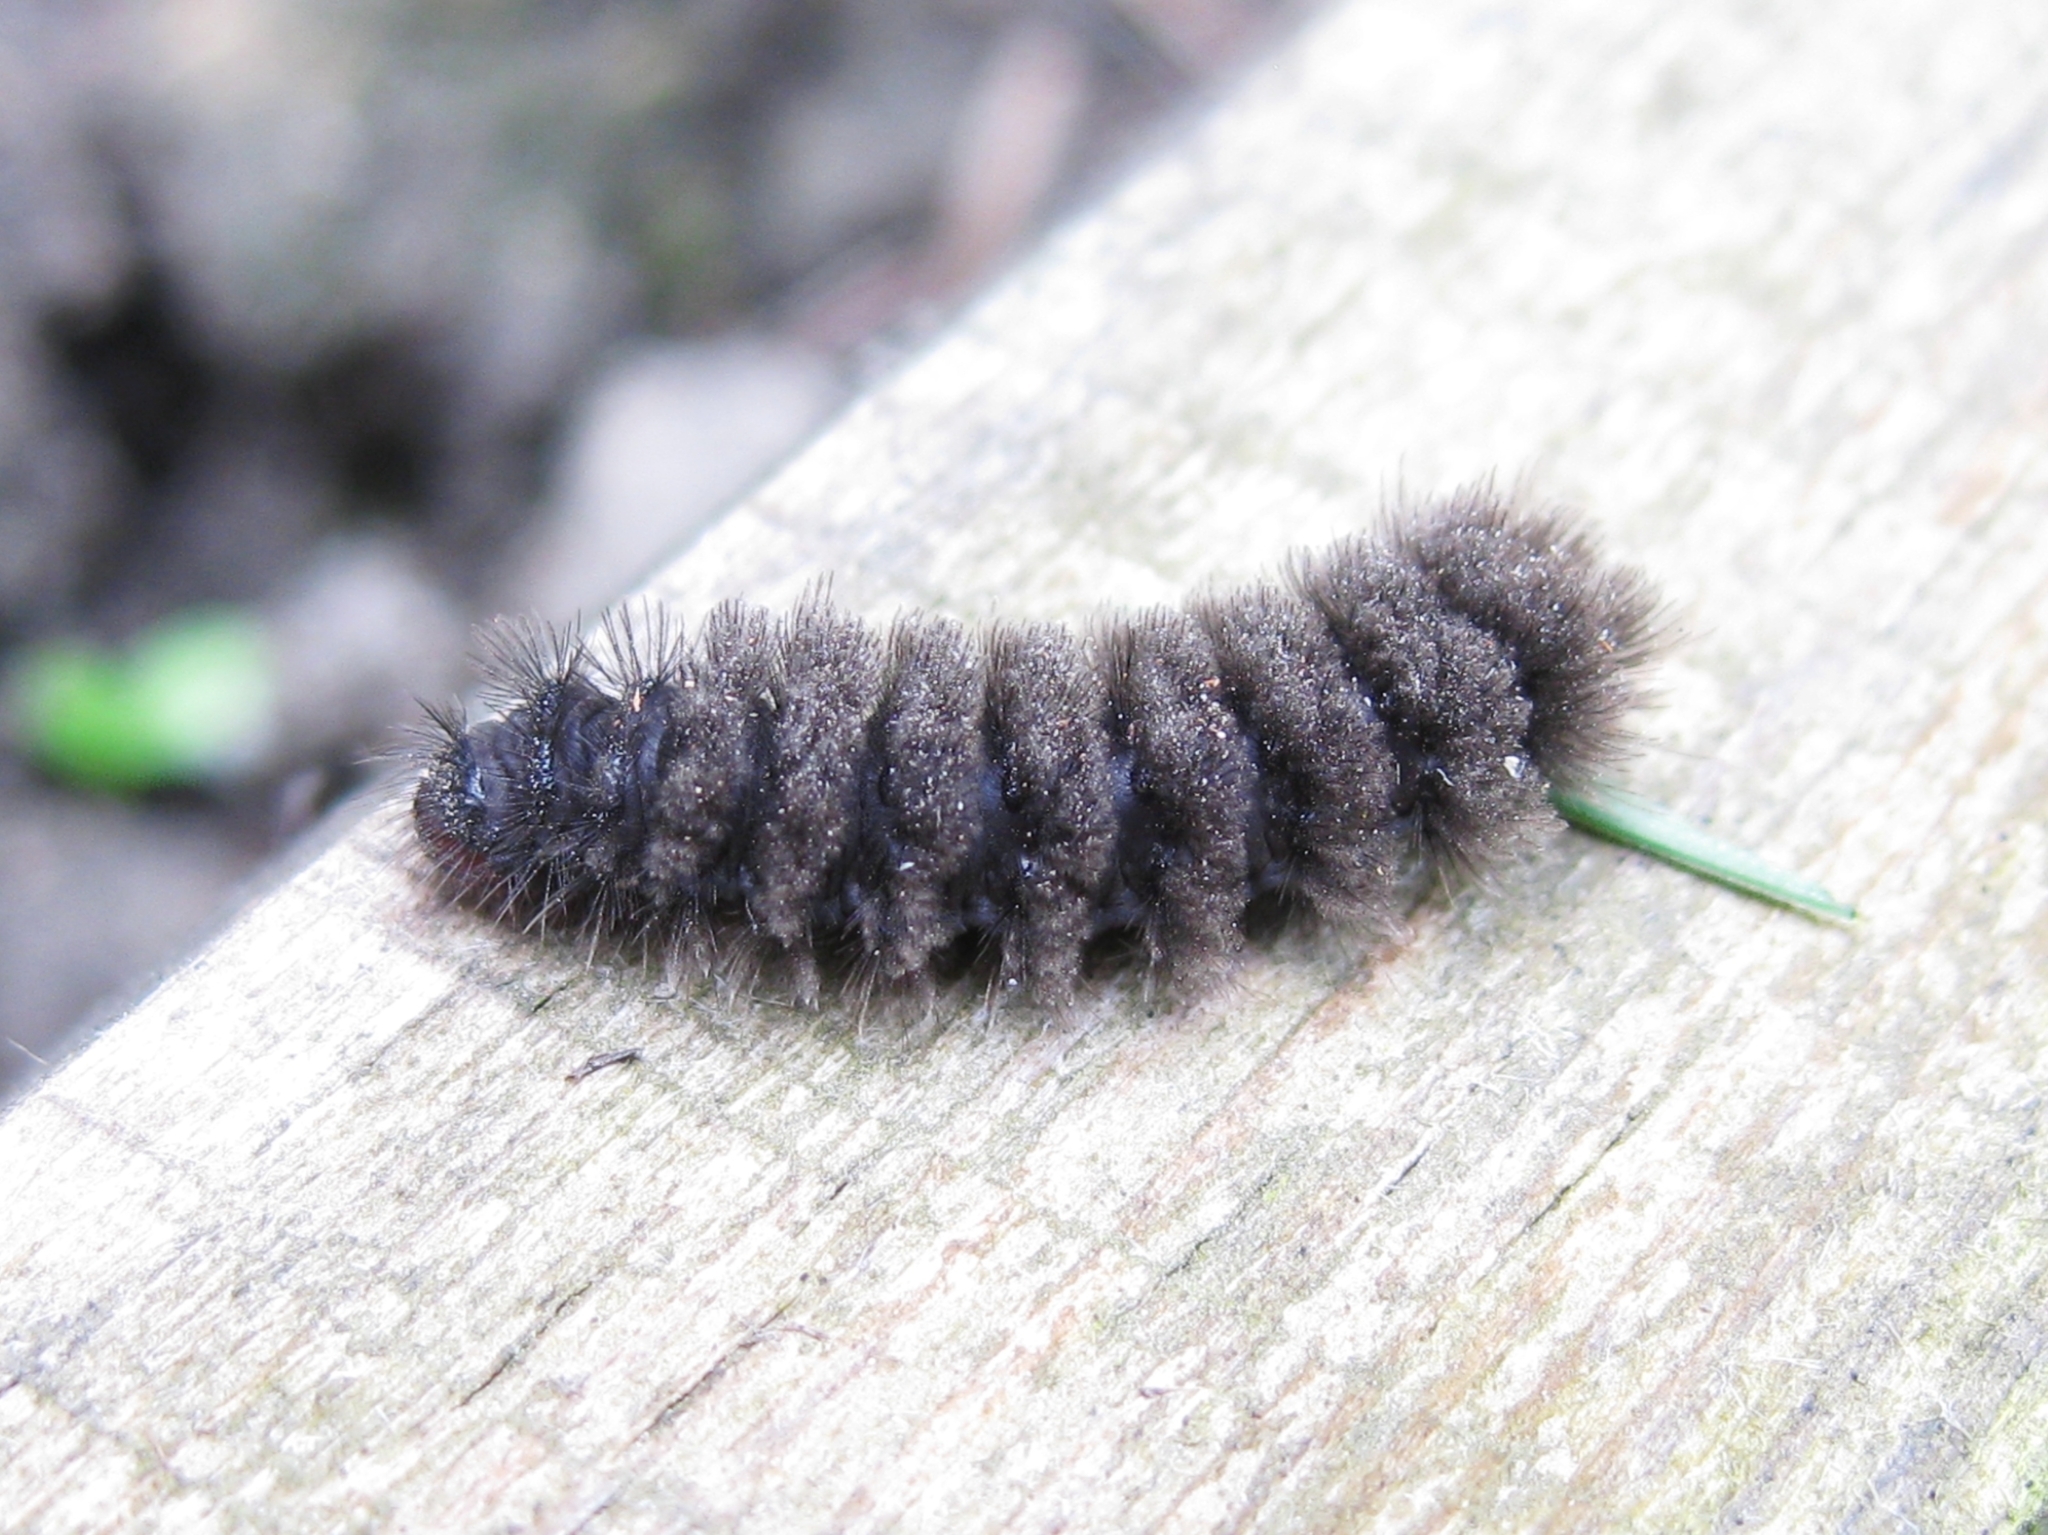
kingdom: Animalia
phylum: Arthropoda
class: Insecta
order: Lepidoptera
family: Erebidae
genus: Amata
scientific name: Amata nigricornis
